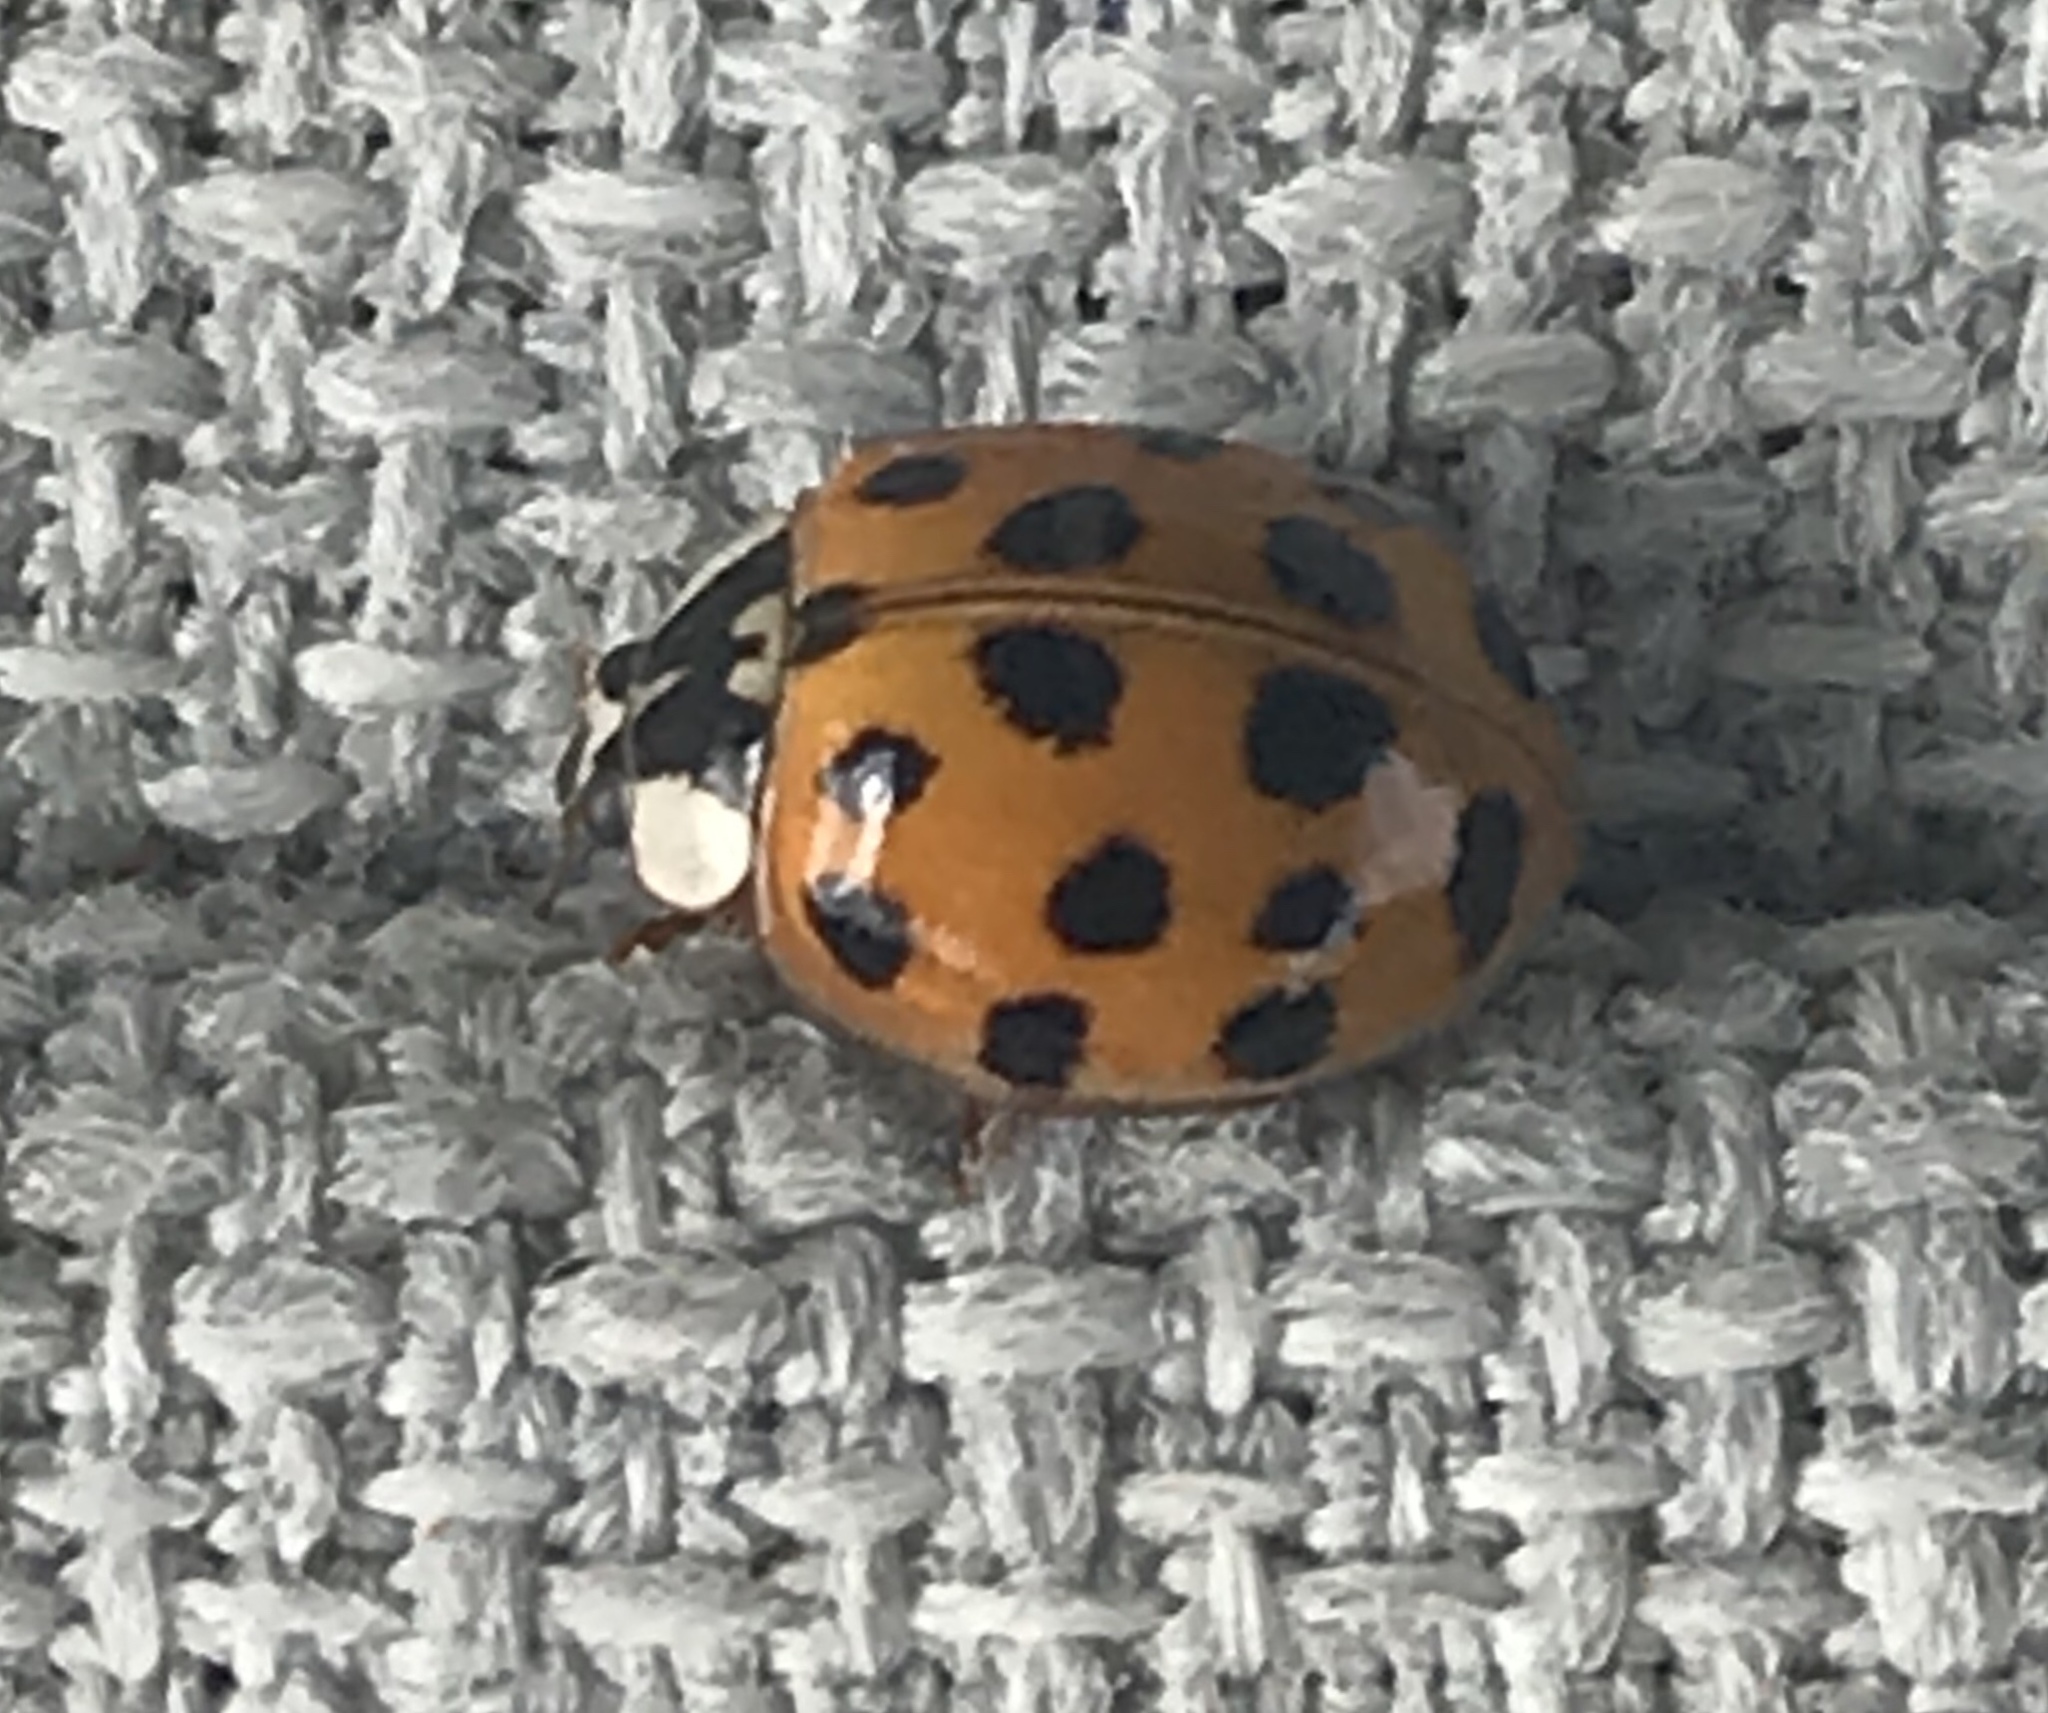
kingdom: Animalia
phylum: Arthropoda
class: Insecta
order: Coleoptera
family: Coccinellidae
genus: Harmonia
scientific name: Harmonia axyridis
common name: Harlequin ladybird
